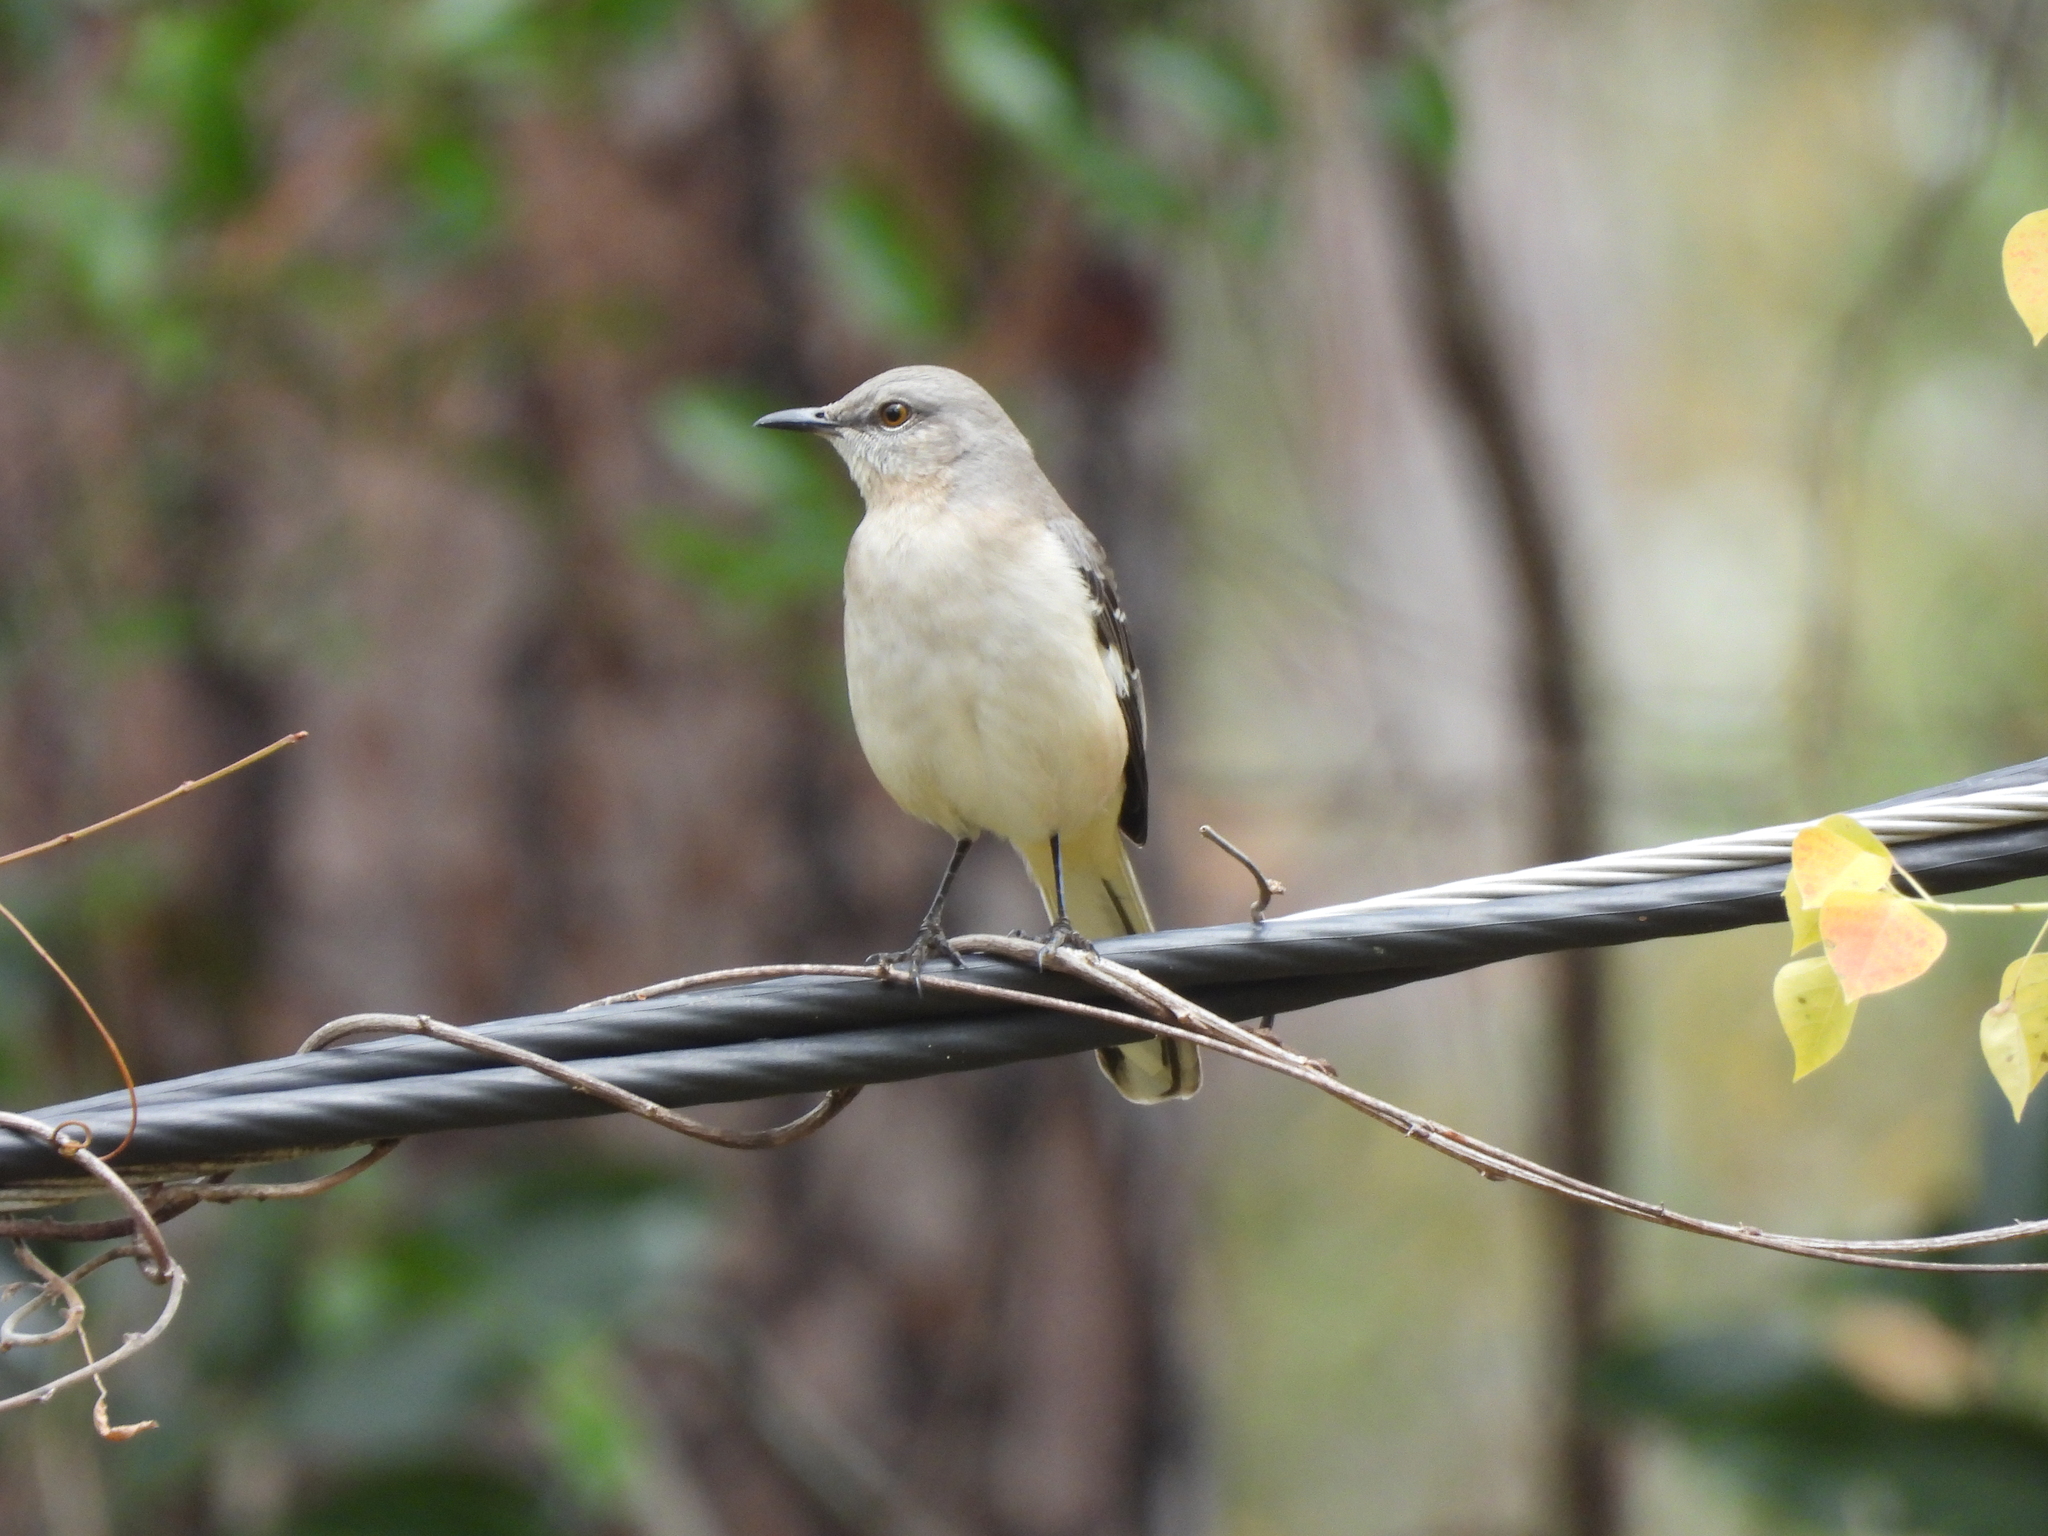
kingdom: Animalia
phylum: Chordata
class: Aves
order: Passeriformes
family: Mimidae
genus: Mimus
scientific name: Mimus polyglottos
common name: Northern mockingbird
